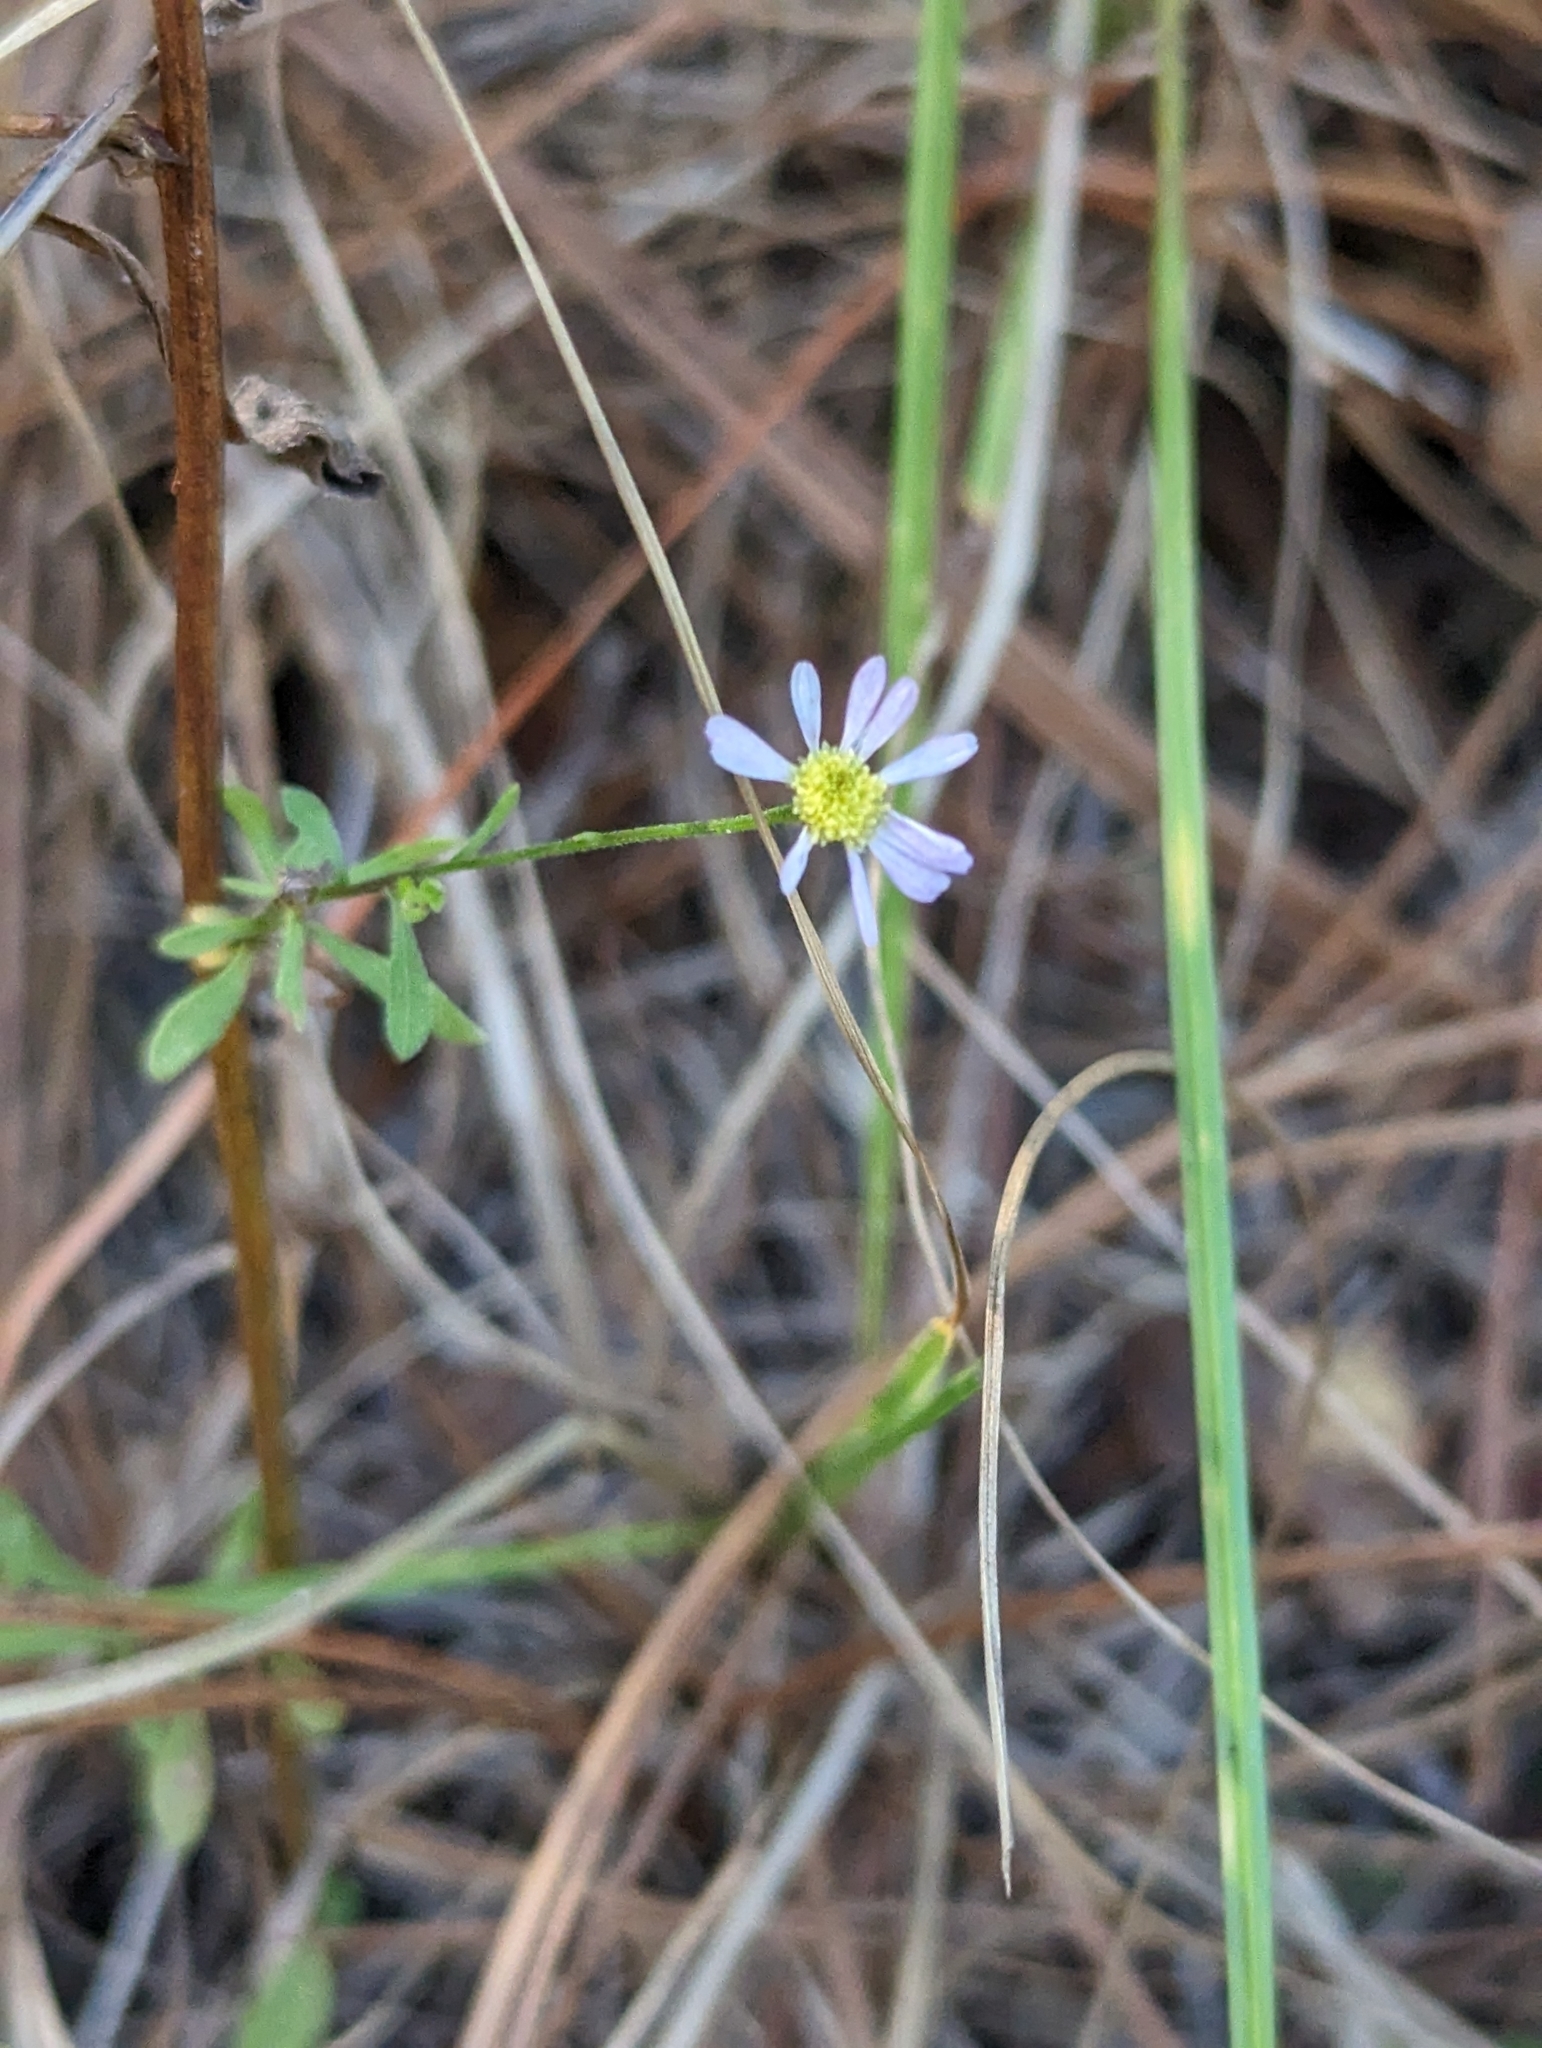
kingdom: Plantae
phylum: Tracheophyta
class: Magnoliopsida
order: Asterales
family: Asteraceae
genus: Symphyotrichum
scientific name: Symphyotrichum dumosum
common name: Bushy aster
